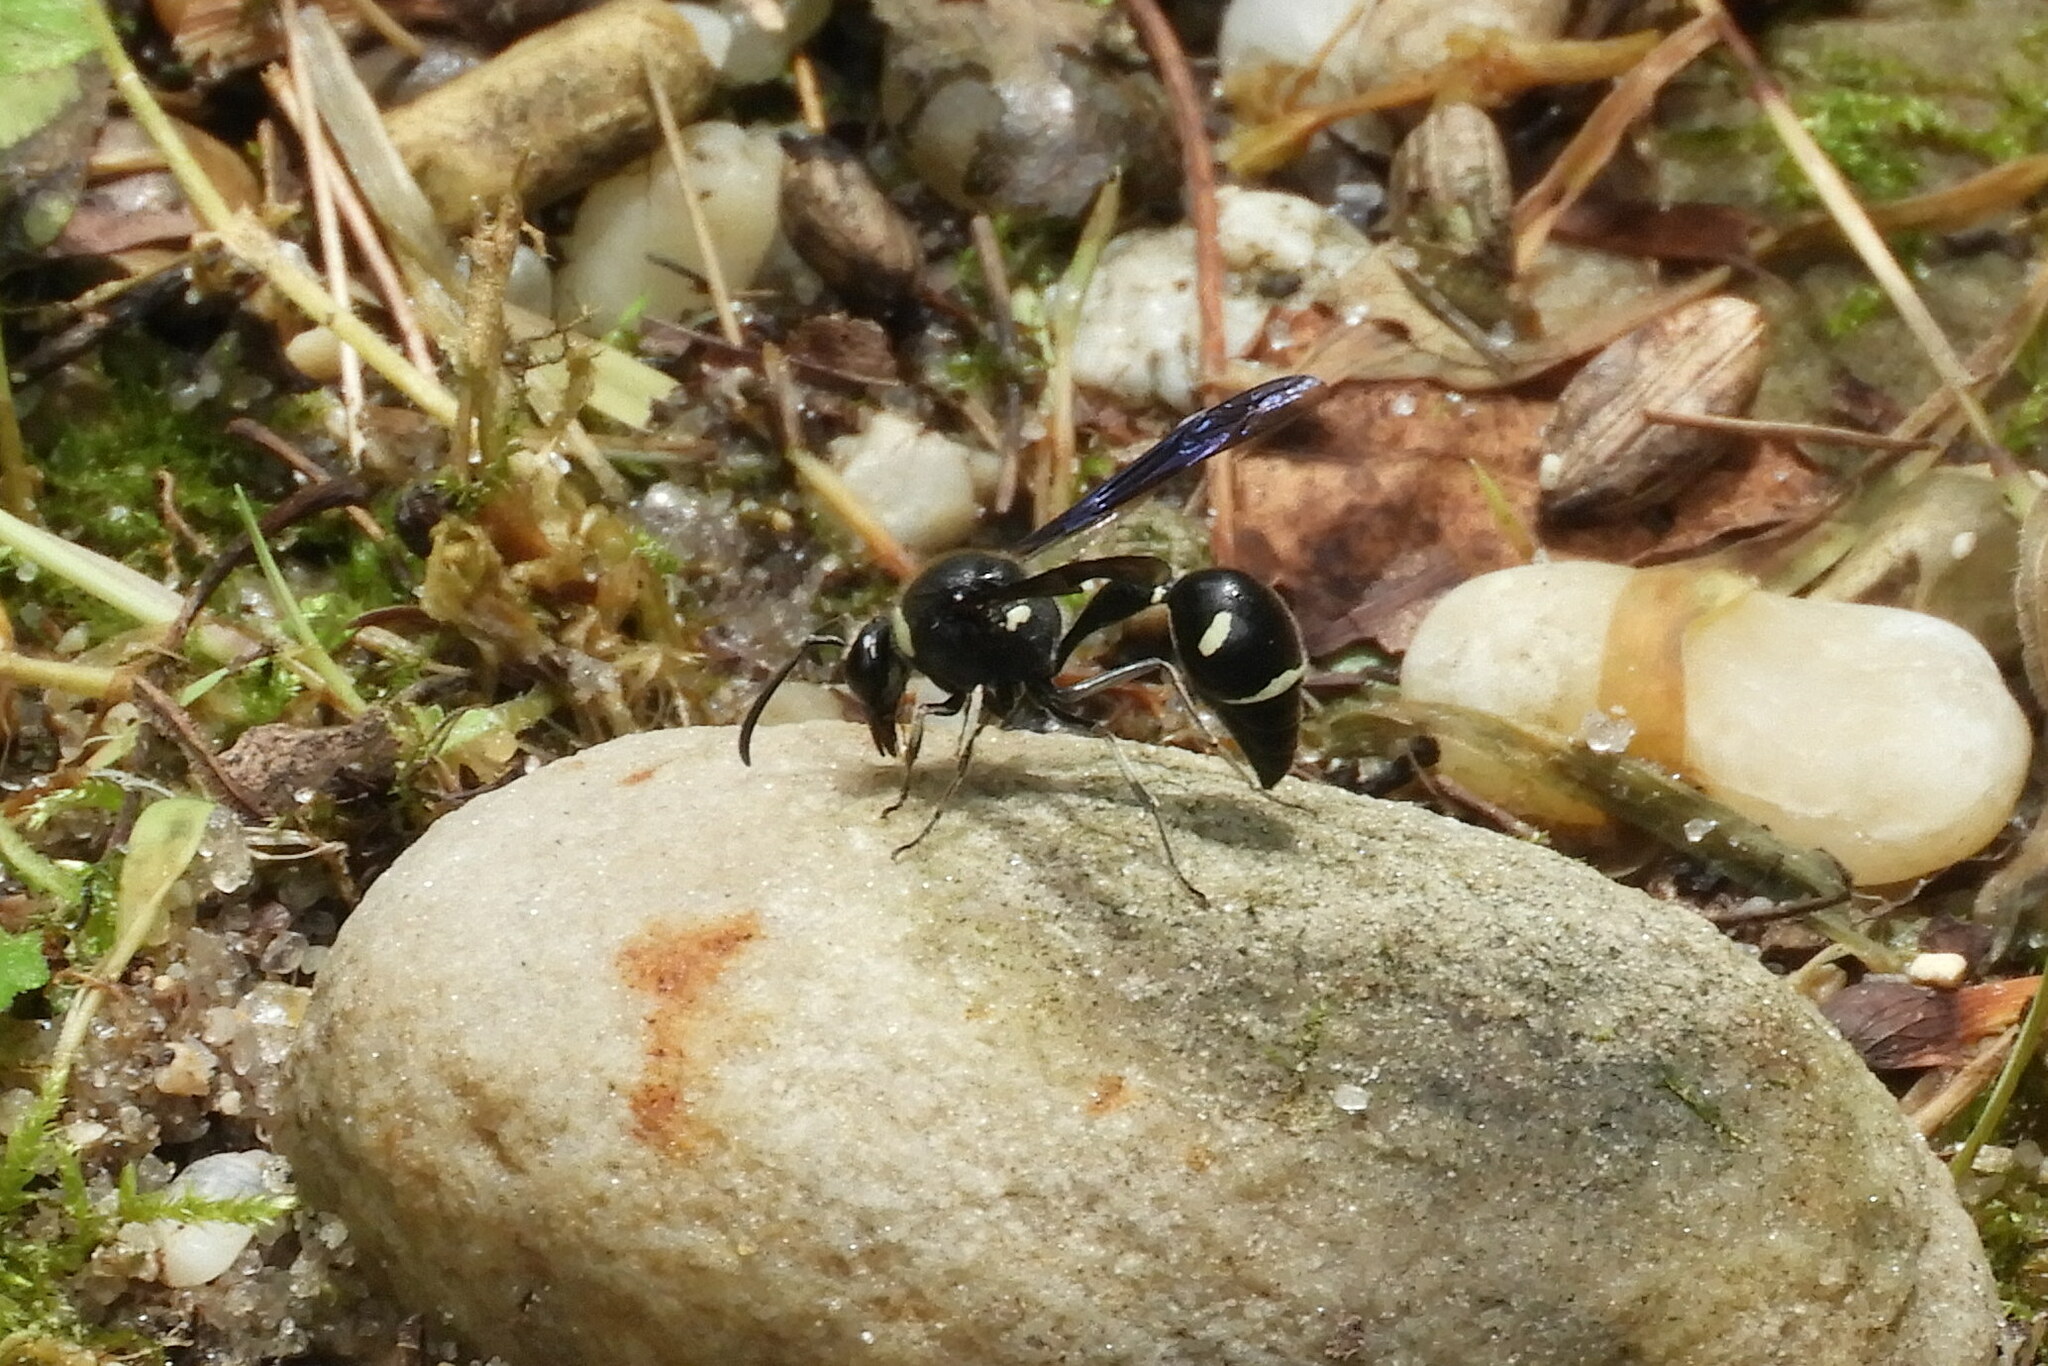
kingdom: Animalia
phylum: Arthropoda
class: Insecta
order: Hymenoptera
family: Vespidae
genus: Eumenes
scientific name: Eumenes fraternus
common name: Fraternal potter wasp
